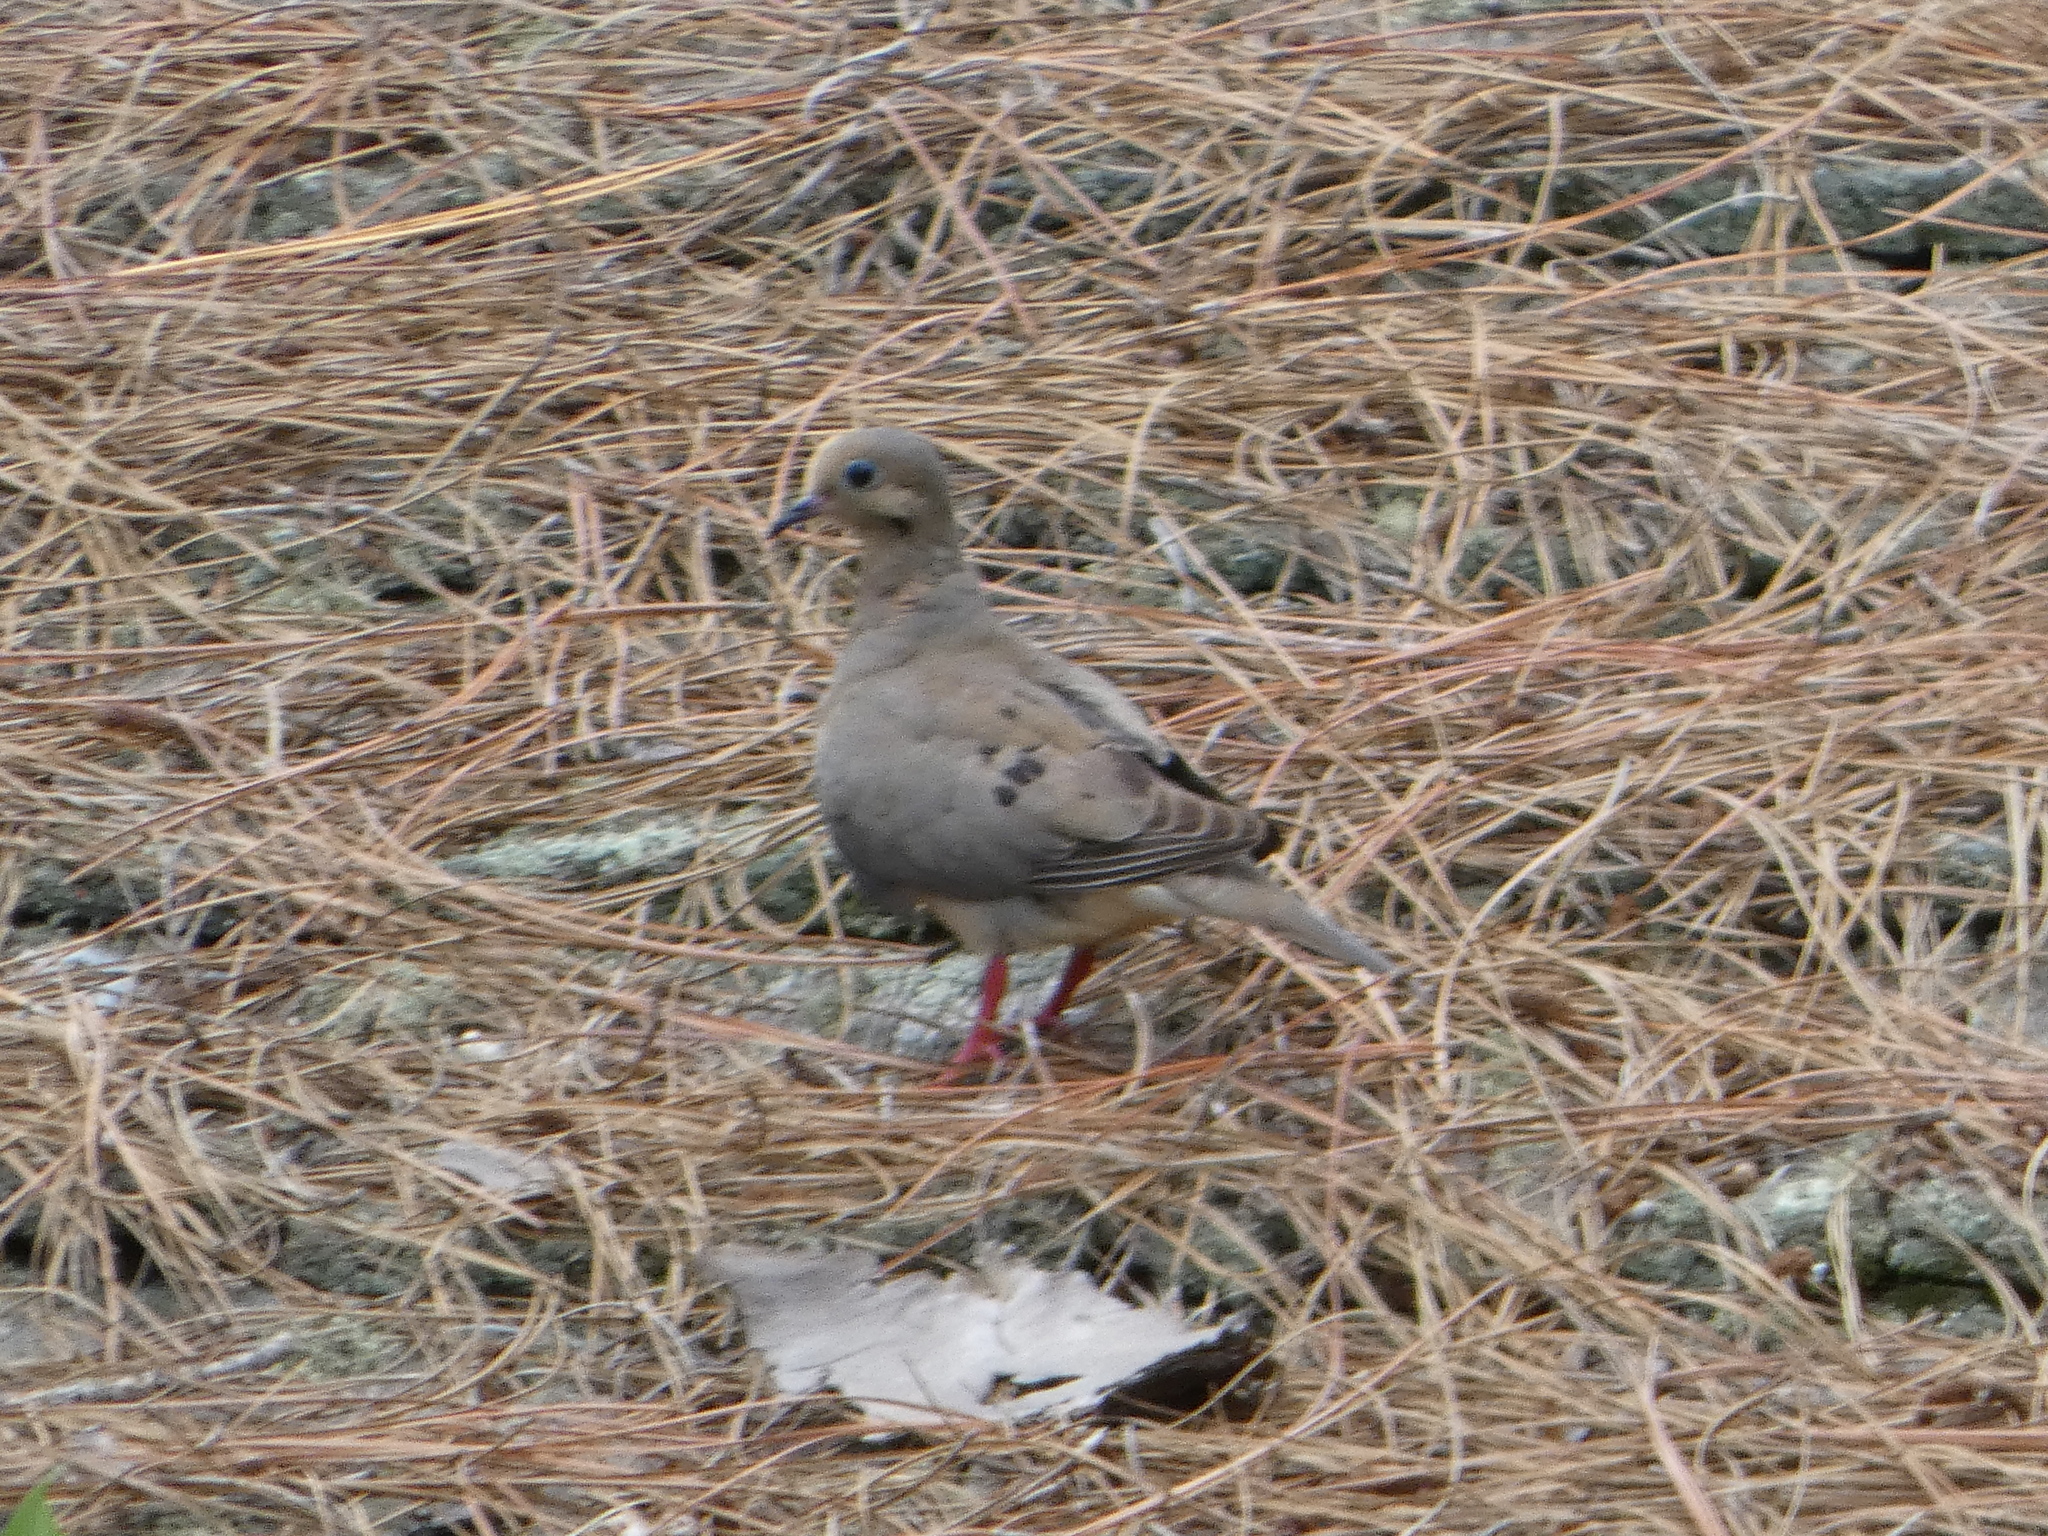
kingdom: Animalia
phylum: Chordata
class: Aves
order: Columbiformes
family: Columbidae
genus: Zenaida
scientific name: Zenaida macroura
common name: Mourning dove
